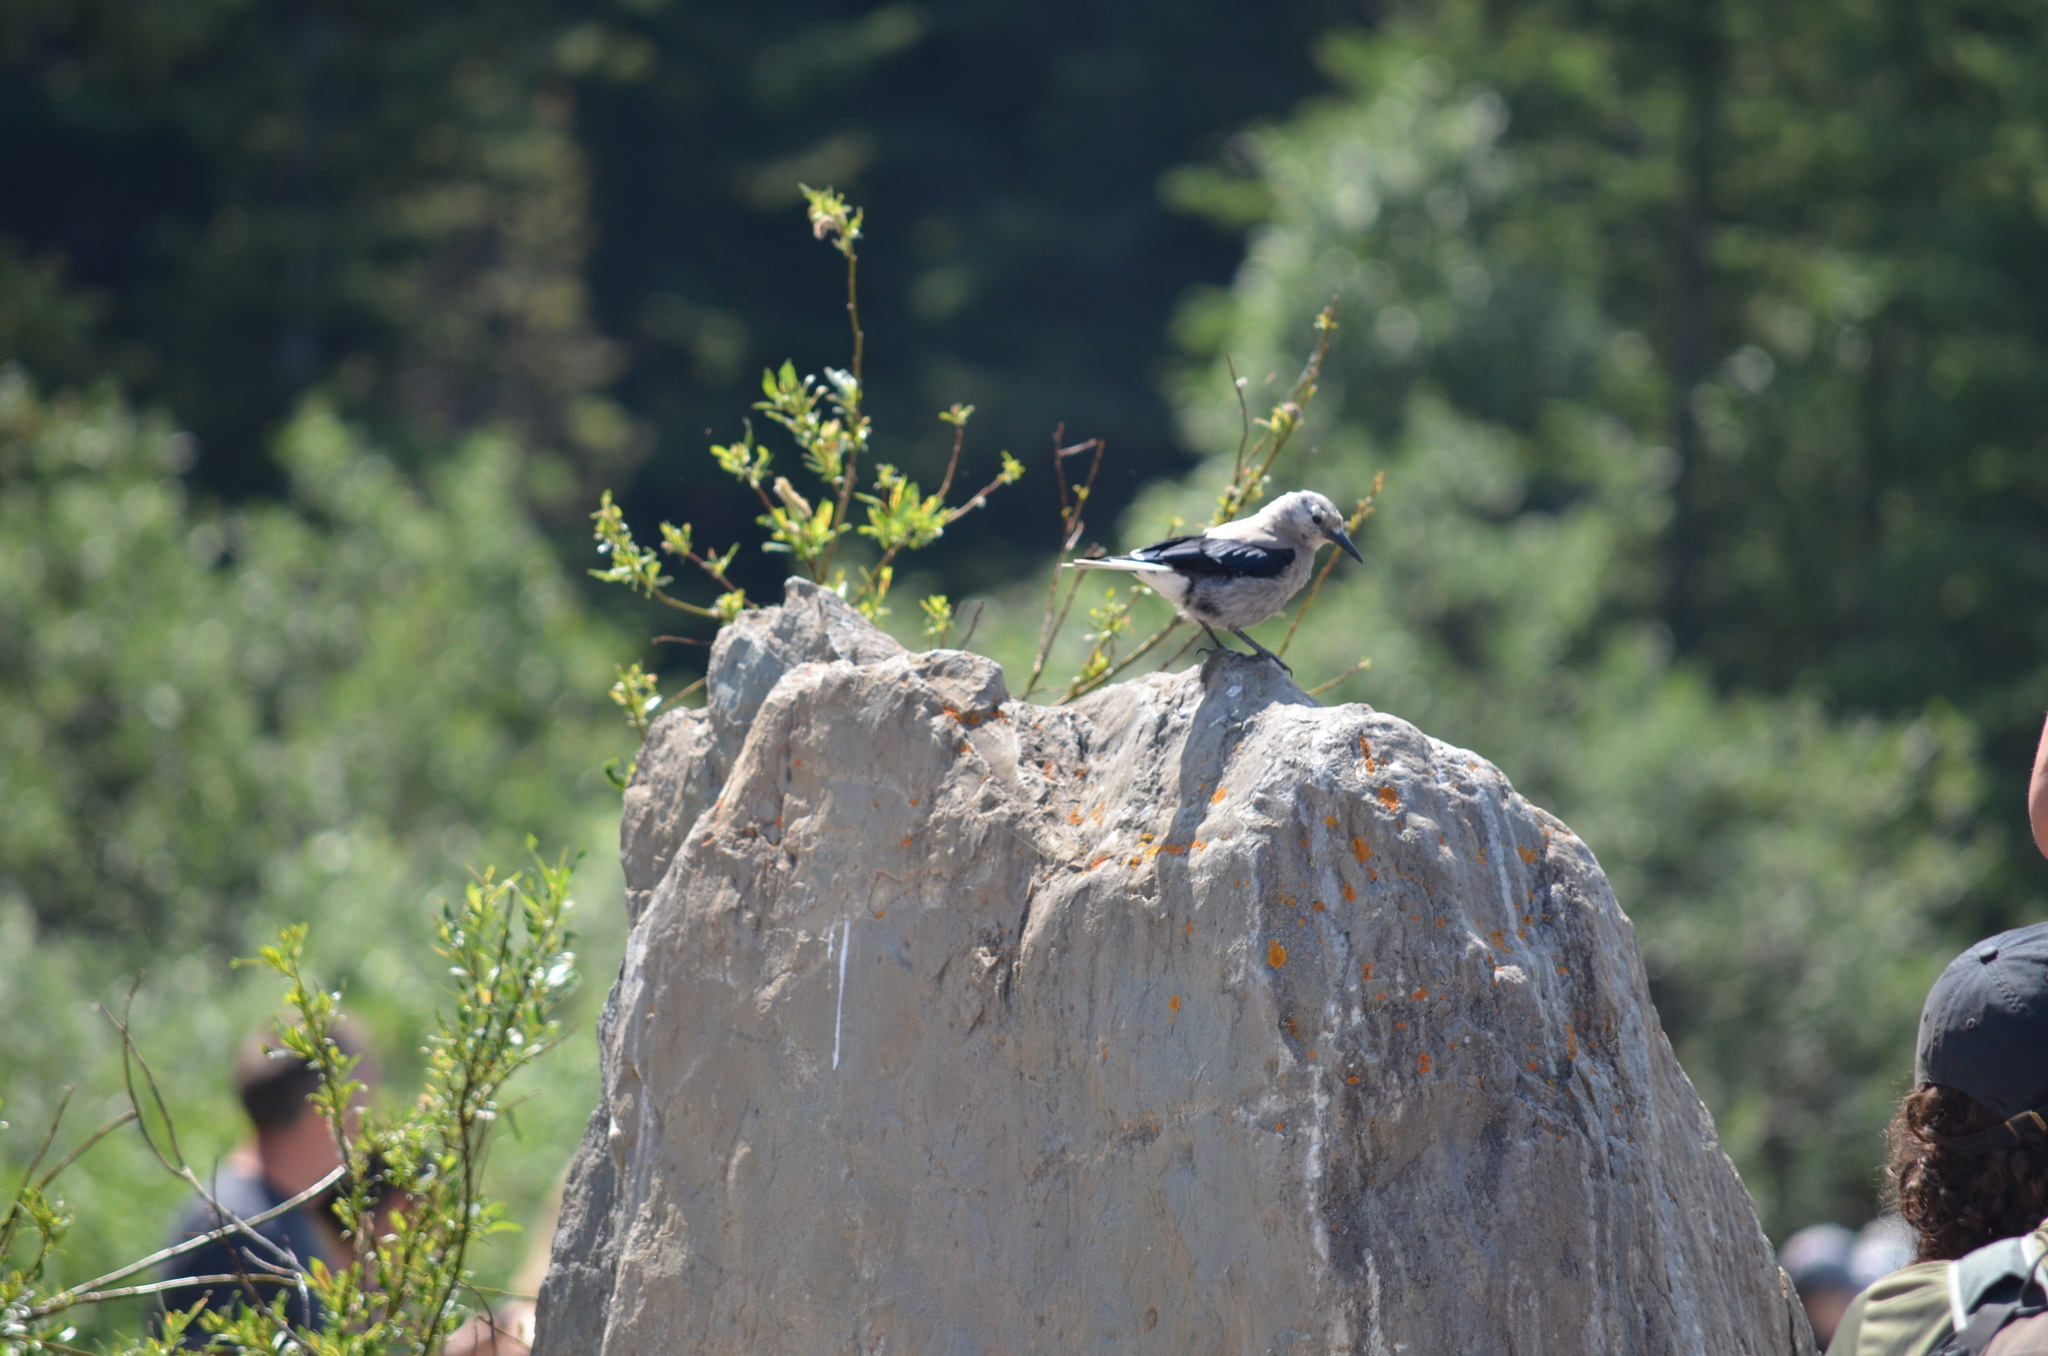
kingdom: Animalia
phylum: Chordata
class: Aves
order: Passeriformes
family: Corvidae
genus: Nucifraga
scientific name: Nucifraga columbiana
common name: Clark's nutcracker
